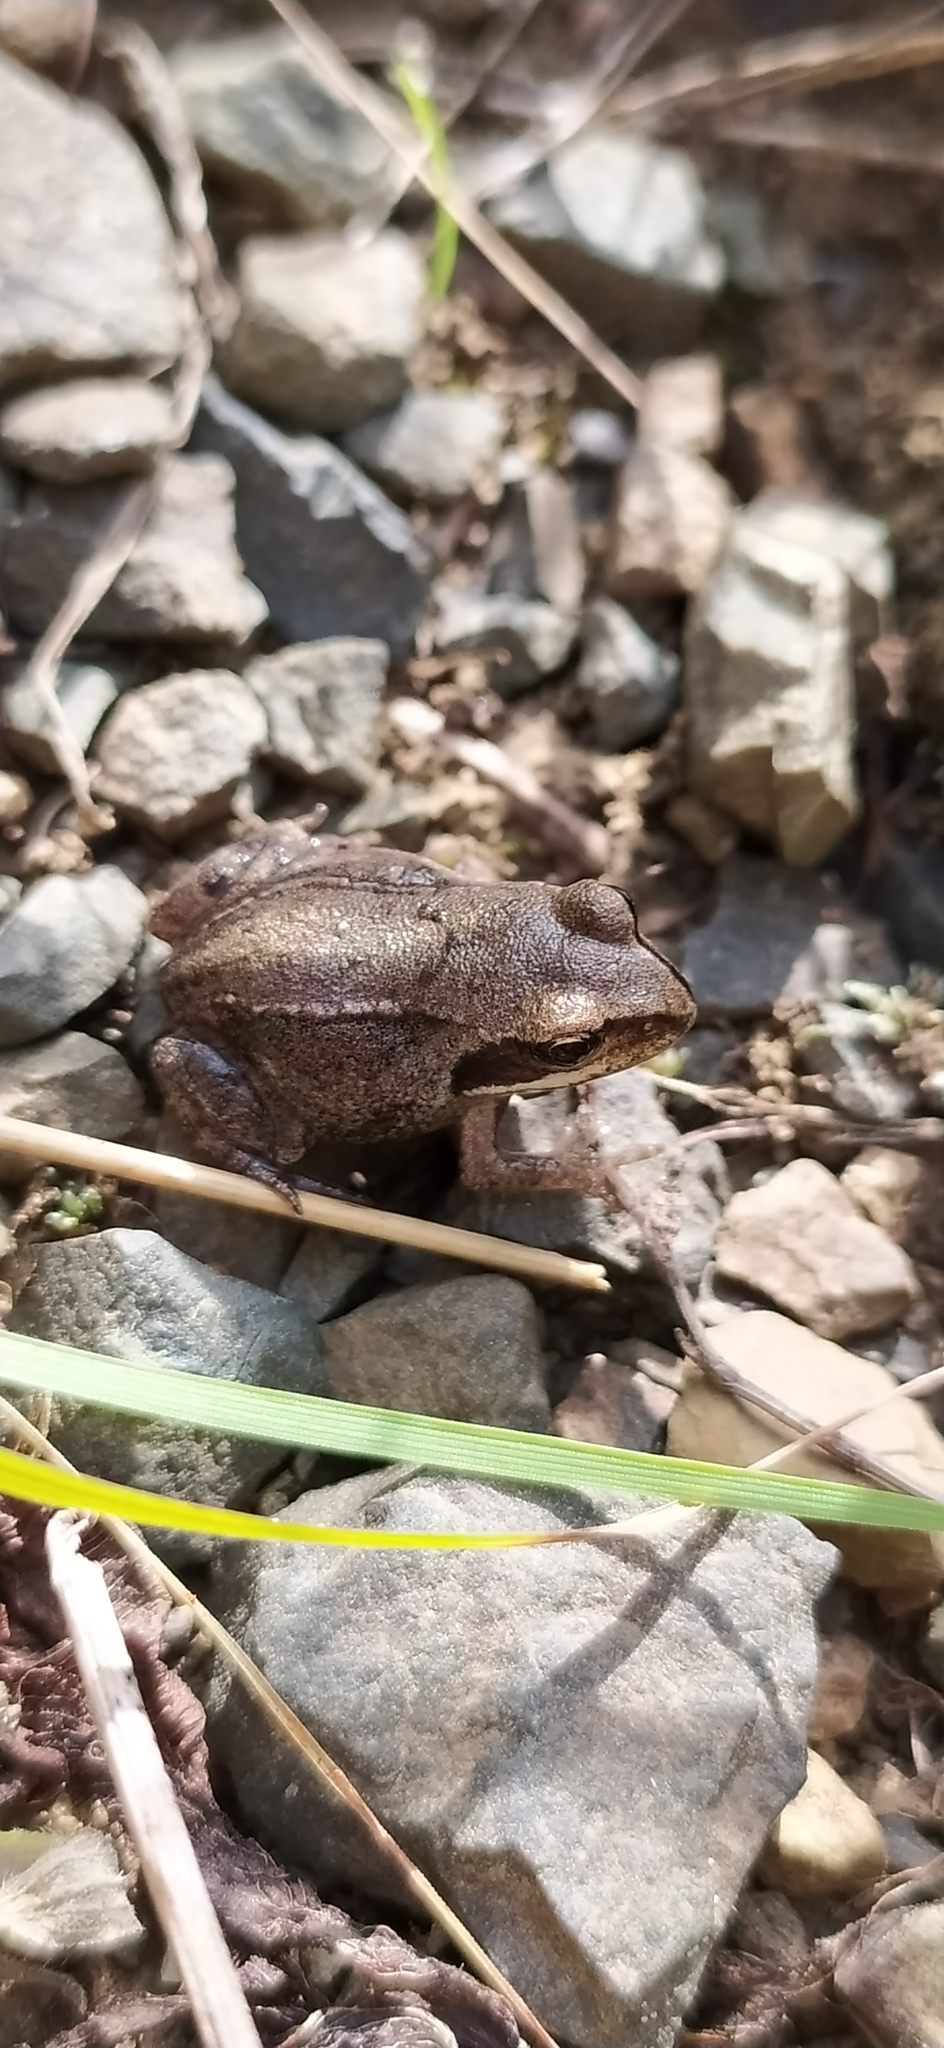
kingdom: Animalia
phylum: Chordata
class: Amphibia
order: Anura
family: Ranidae
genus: Rana
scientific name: Rana arvalis
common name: Moor frog
